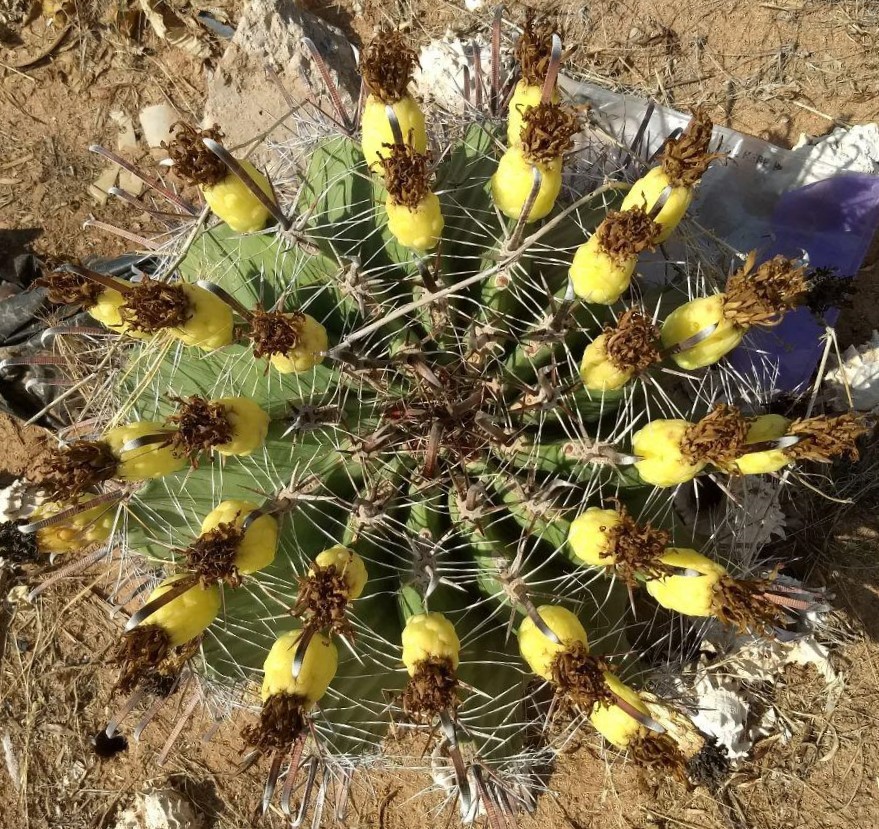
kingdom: Plantae
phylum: Tracheophyta
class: Magnoliopsida
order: Caryophyllales
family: Cactaceae
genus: Ferocactus
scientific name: Ferocactus wislizeni
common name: Candy barrel cactus
